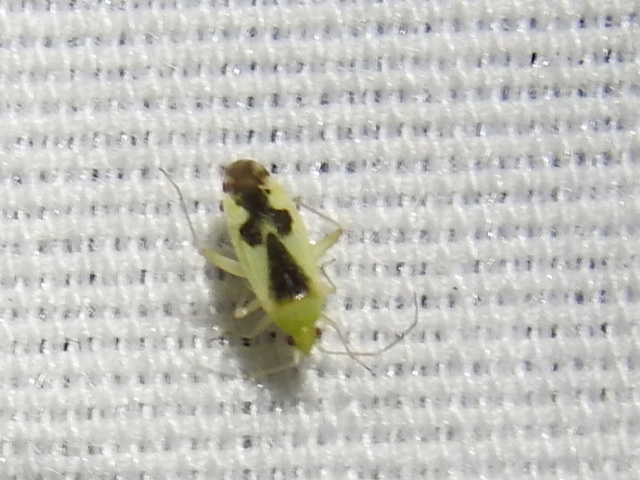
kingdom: Animalia
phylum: Arthropoda
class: Insecta
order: Hemiptera
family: Miridae
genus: Reuteroscopus
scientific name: Reuteroscopus ornatus
